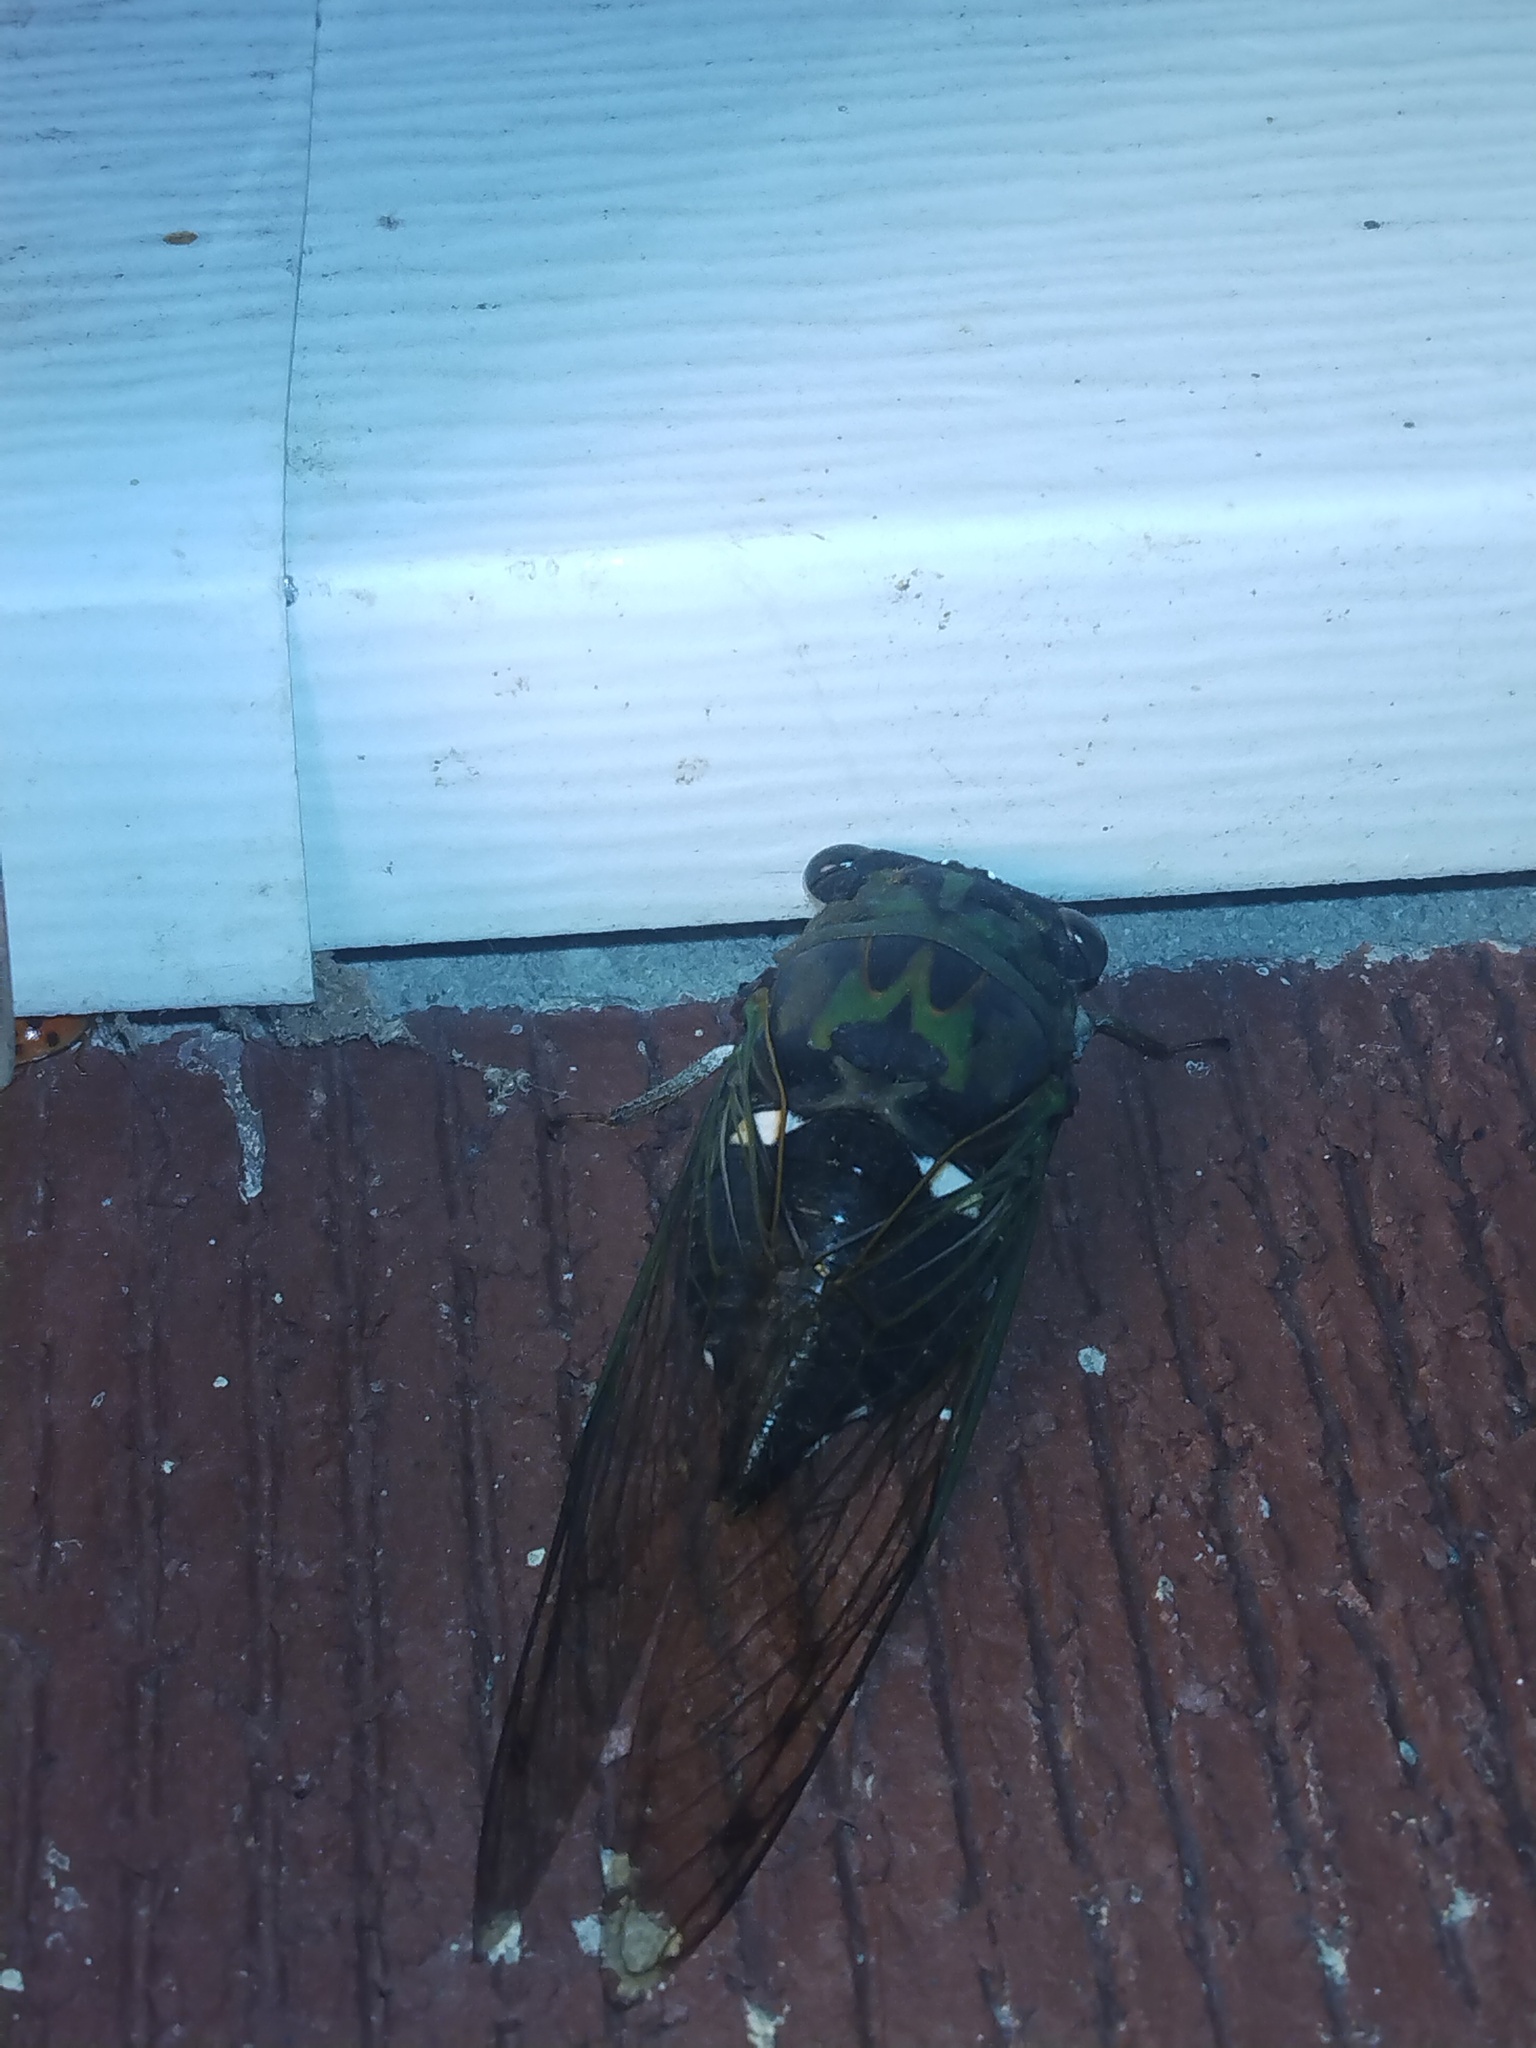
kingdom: Animalia
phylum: Arthropoda
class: Insecta
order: Hemiptera
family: Cicadidae
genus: Neotibicen
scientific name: Neotibicen pruinosus
